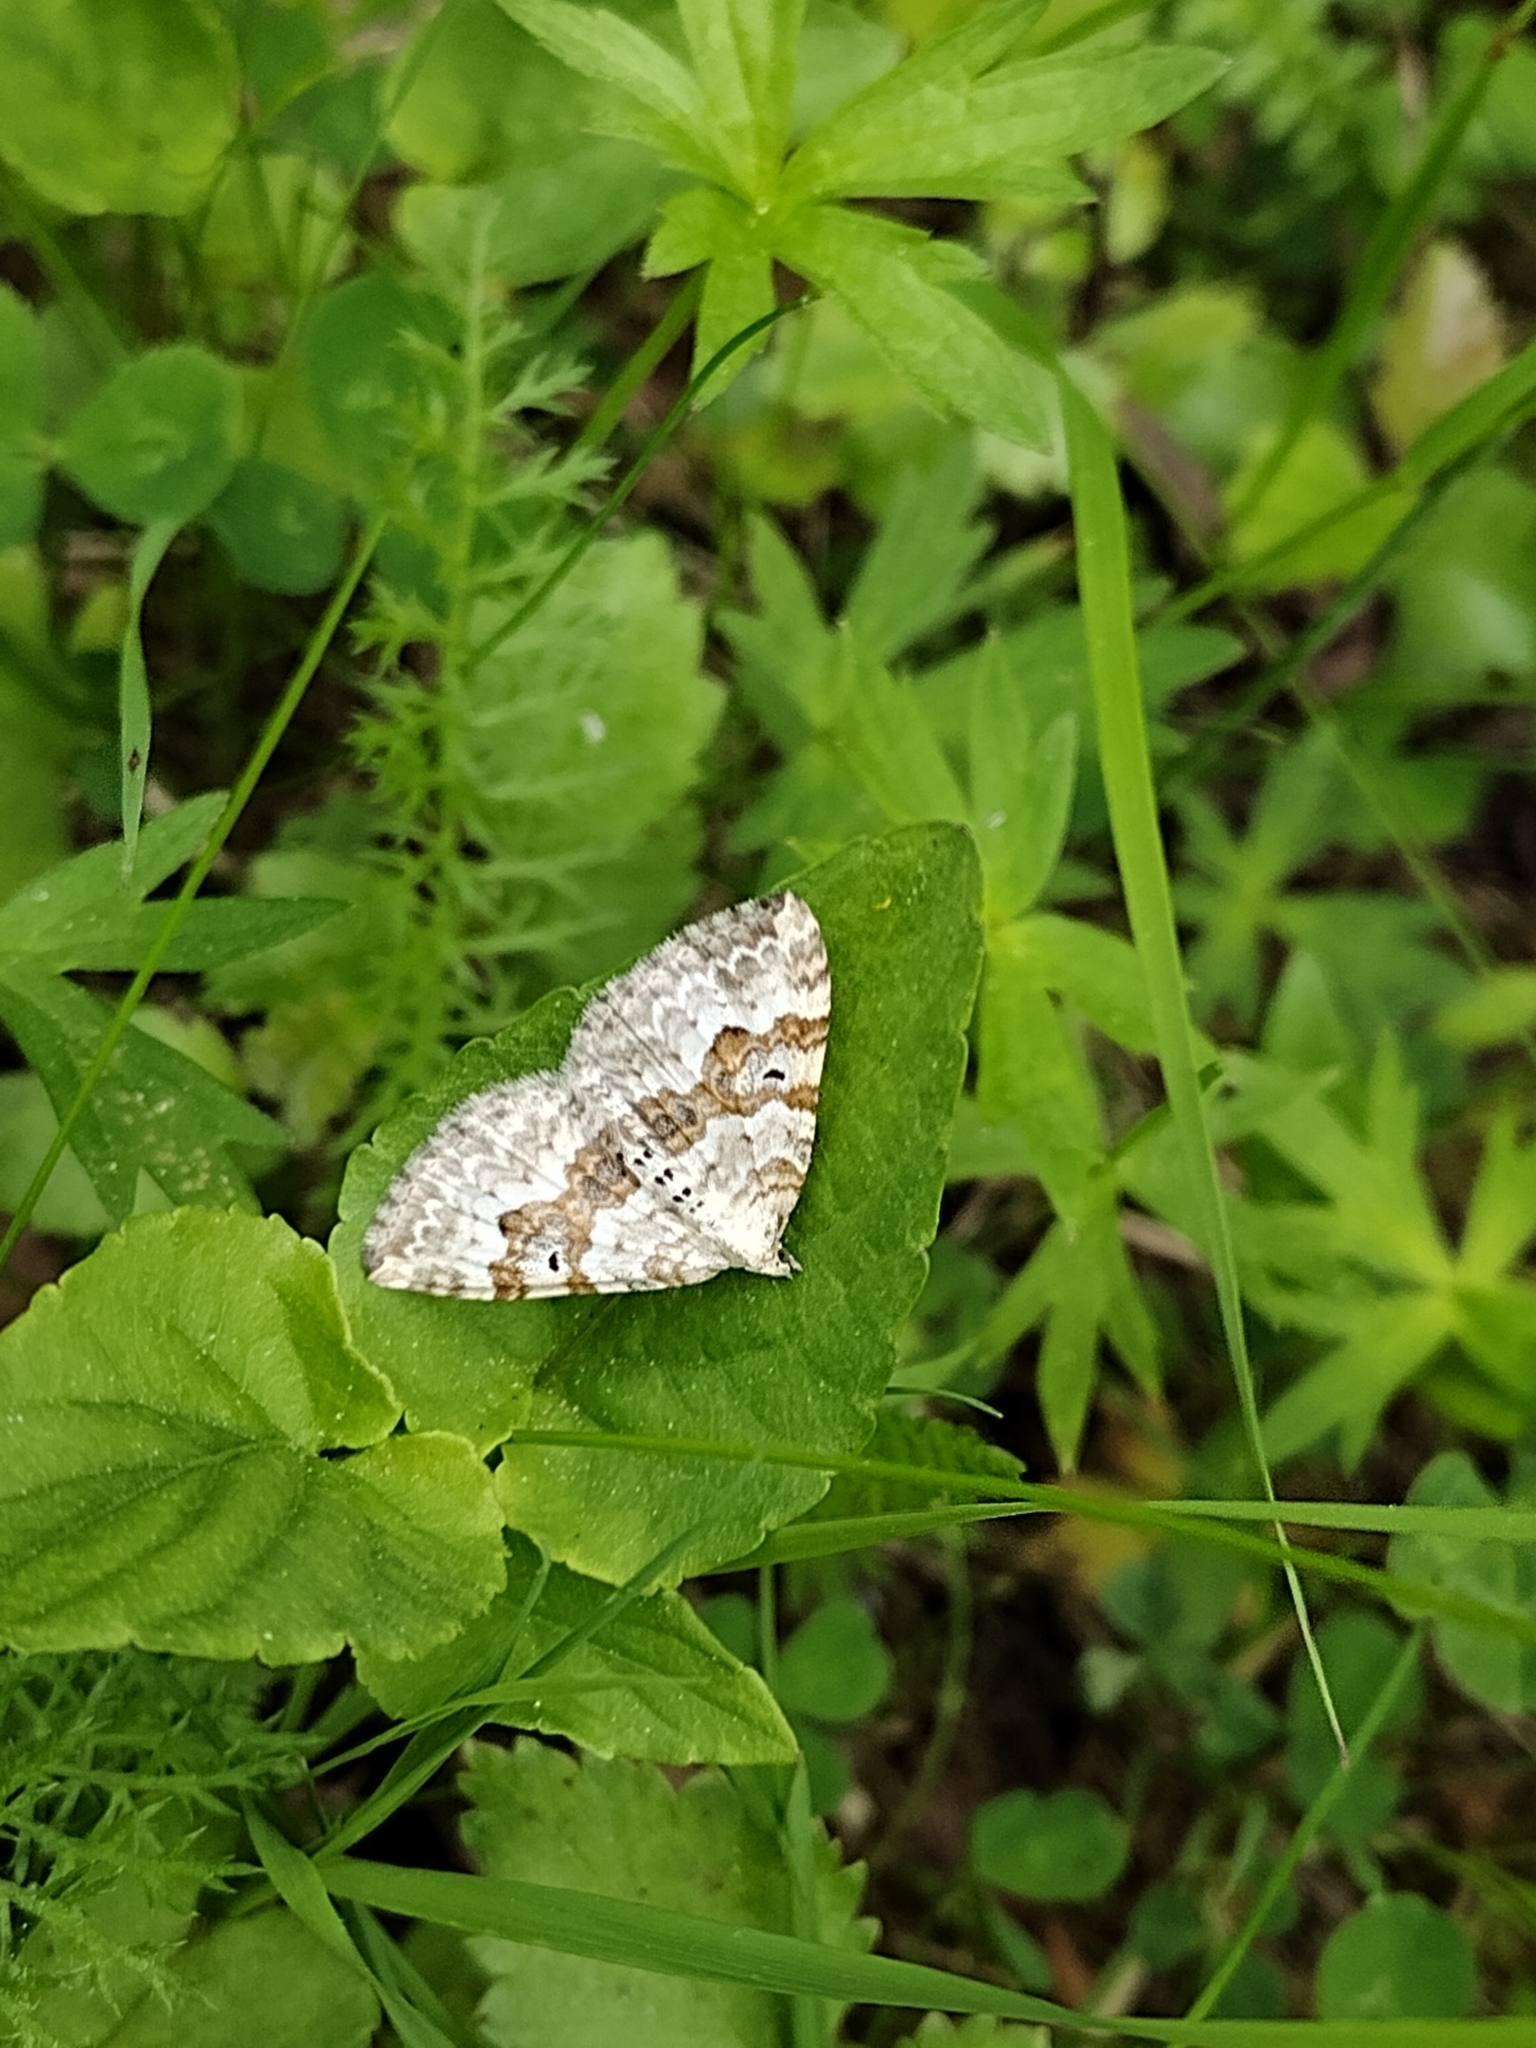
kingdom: Animalia
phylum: Arthropoda
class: Insecta
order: Lepidoptera
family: Geometridae
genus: Xanthorhoe
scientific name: Xanthorhoe montanata
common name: Silver-ground carpet
